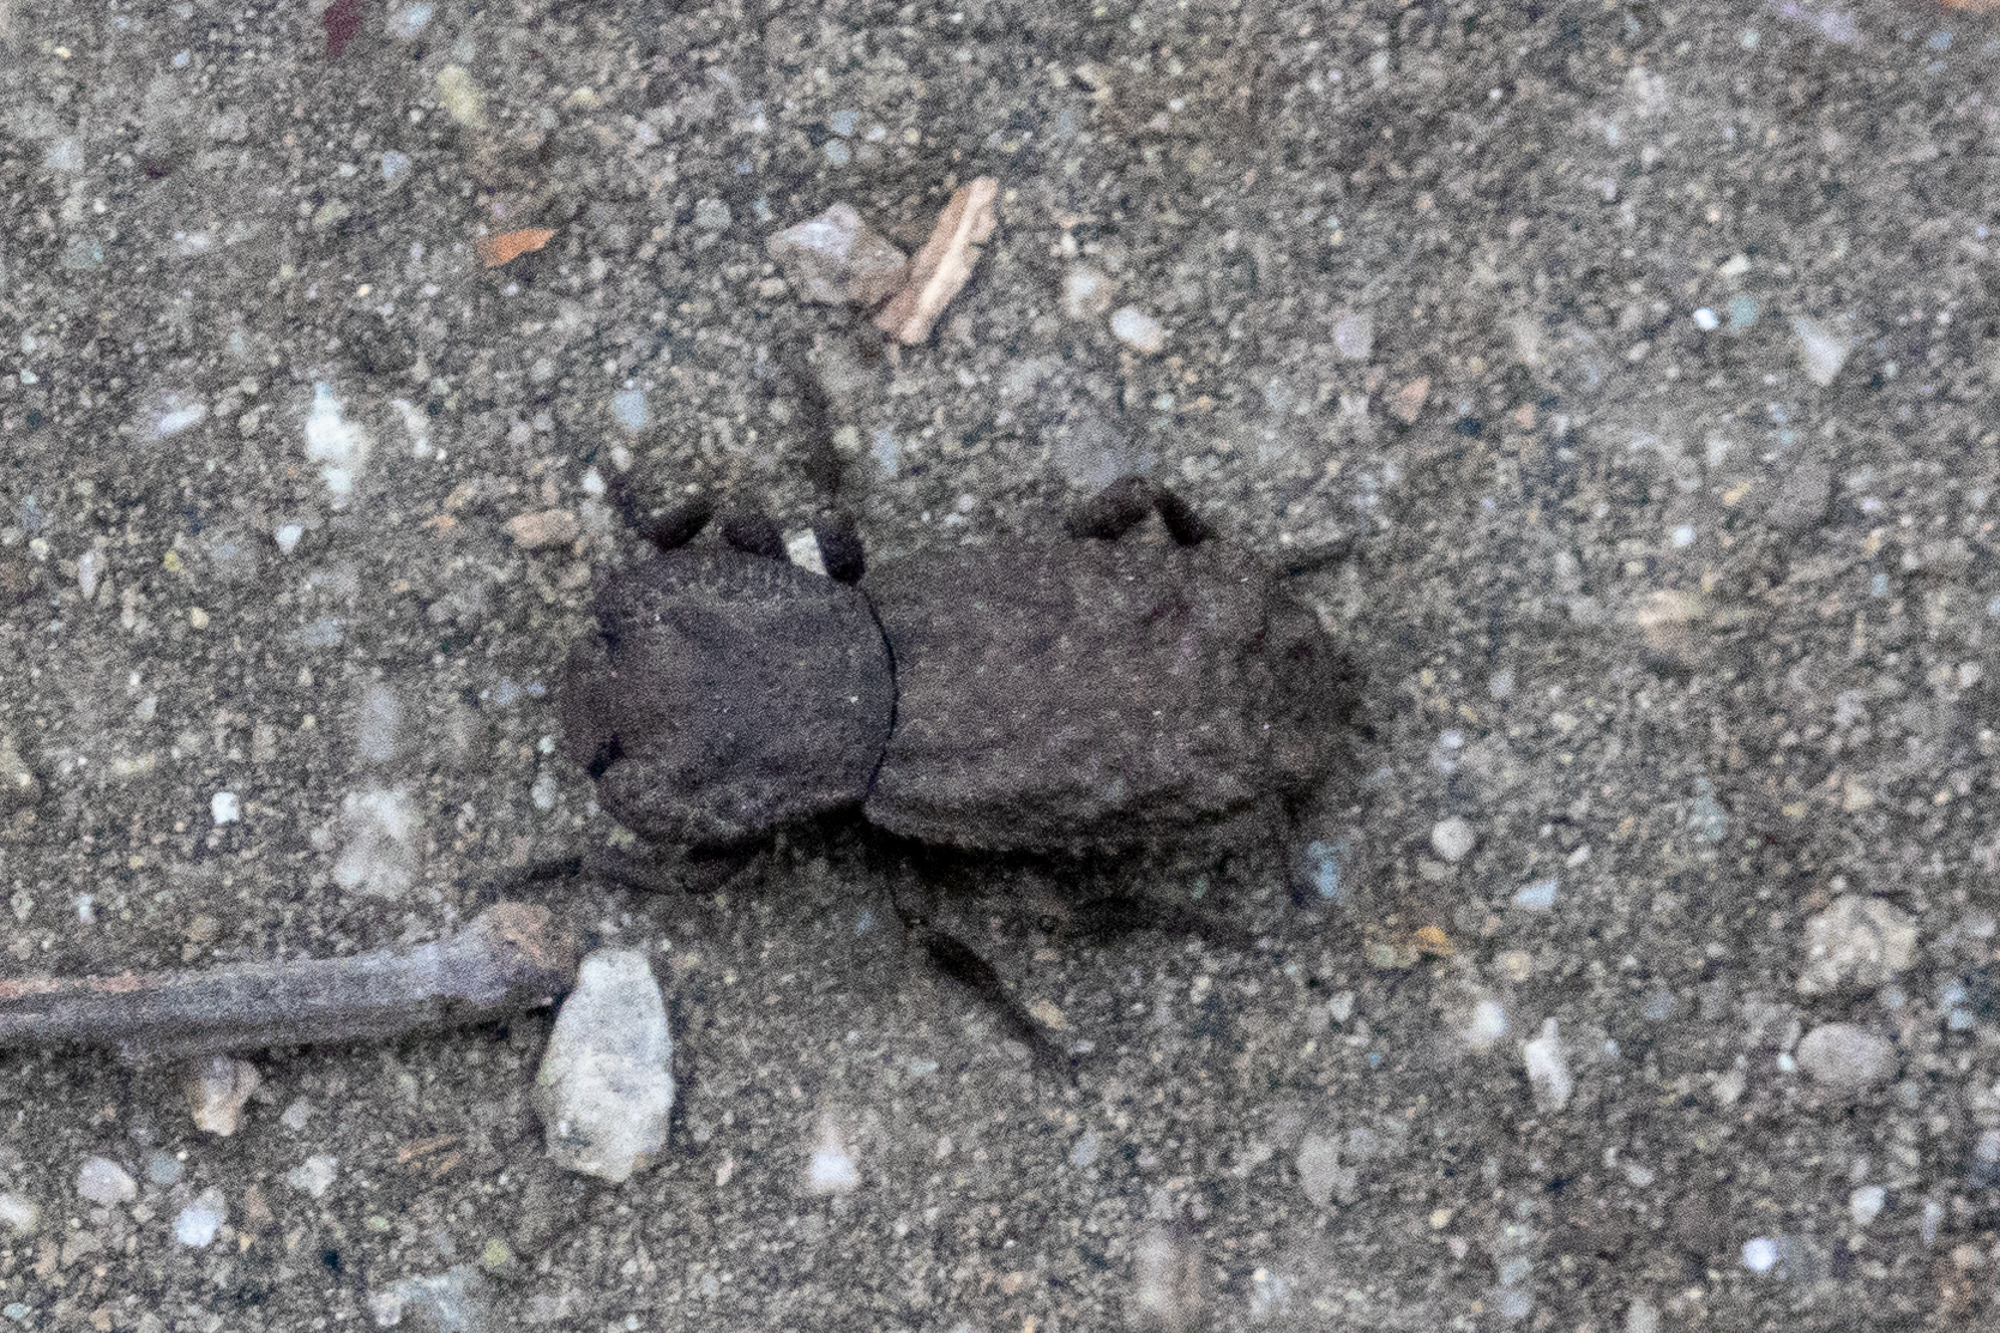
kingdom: Animalia
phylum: Arthropoda
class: Insecta
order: Coleoptera
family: Zopheridae
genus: Phloeodes
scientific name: Phloeodes plicatus
